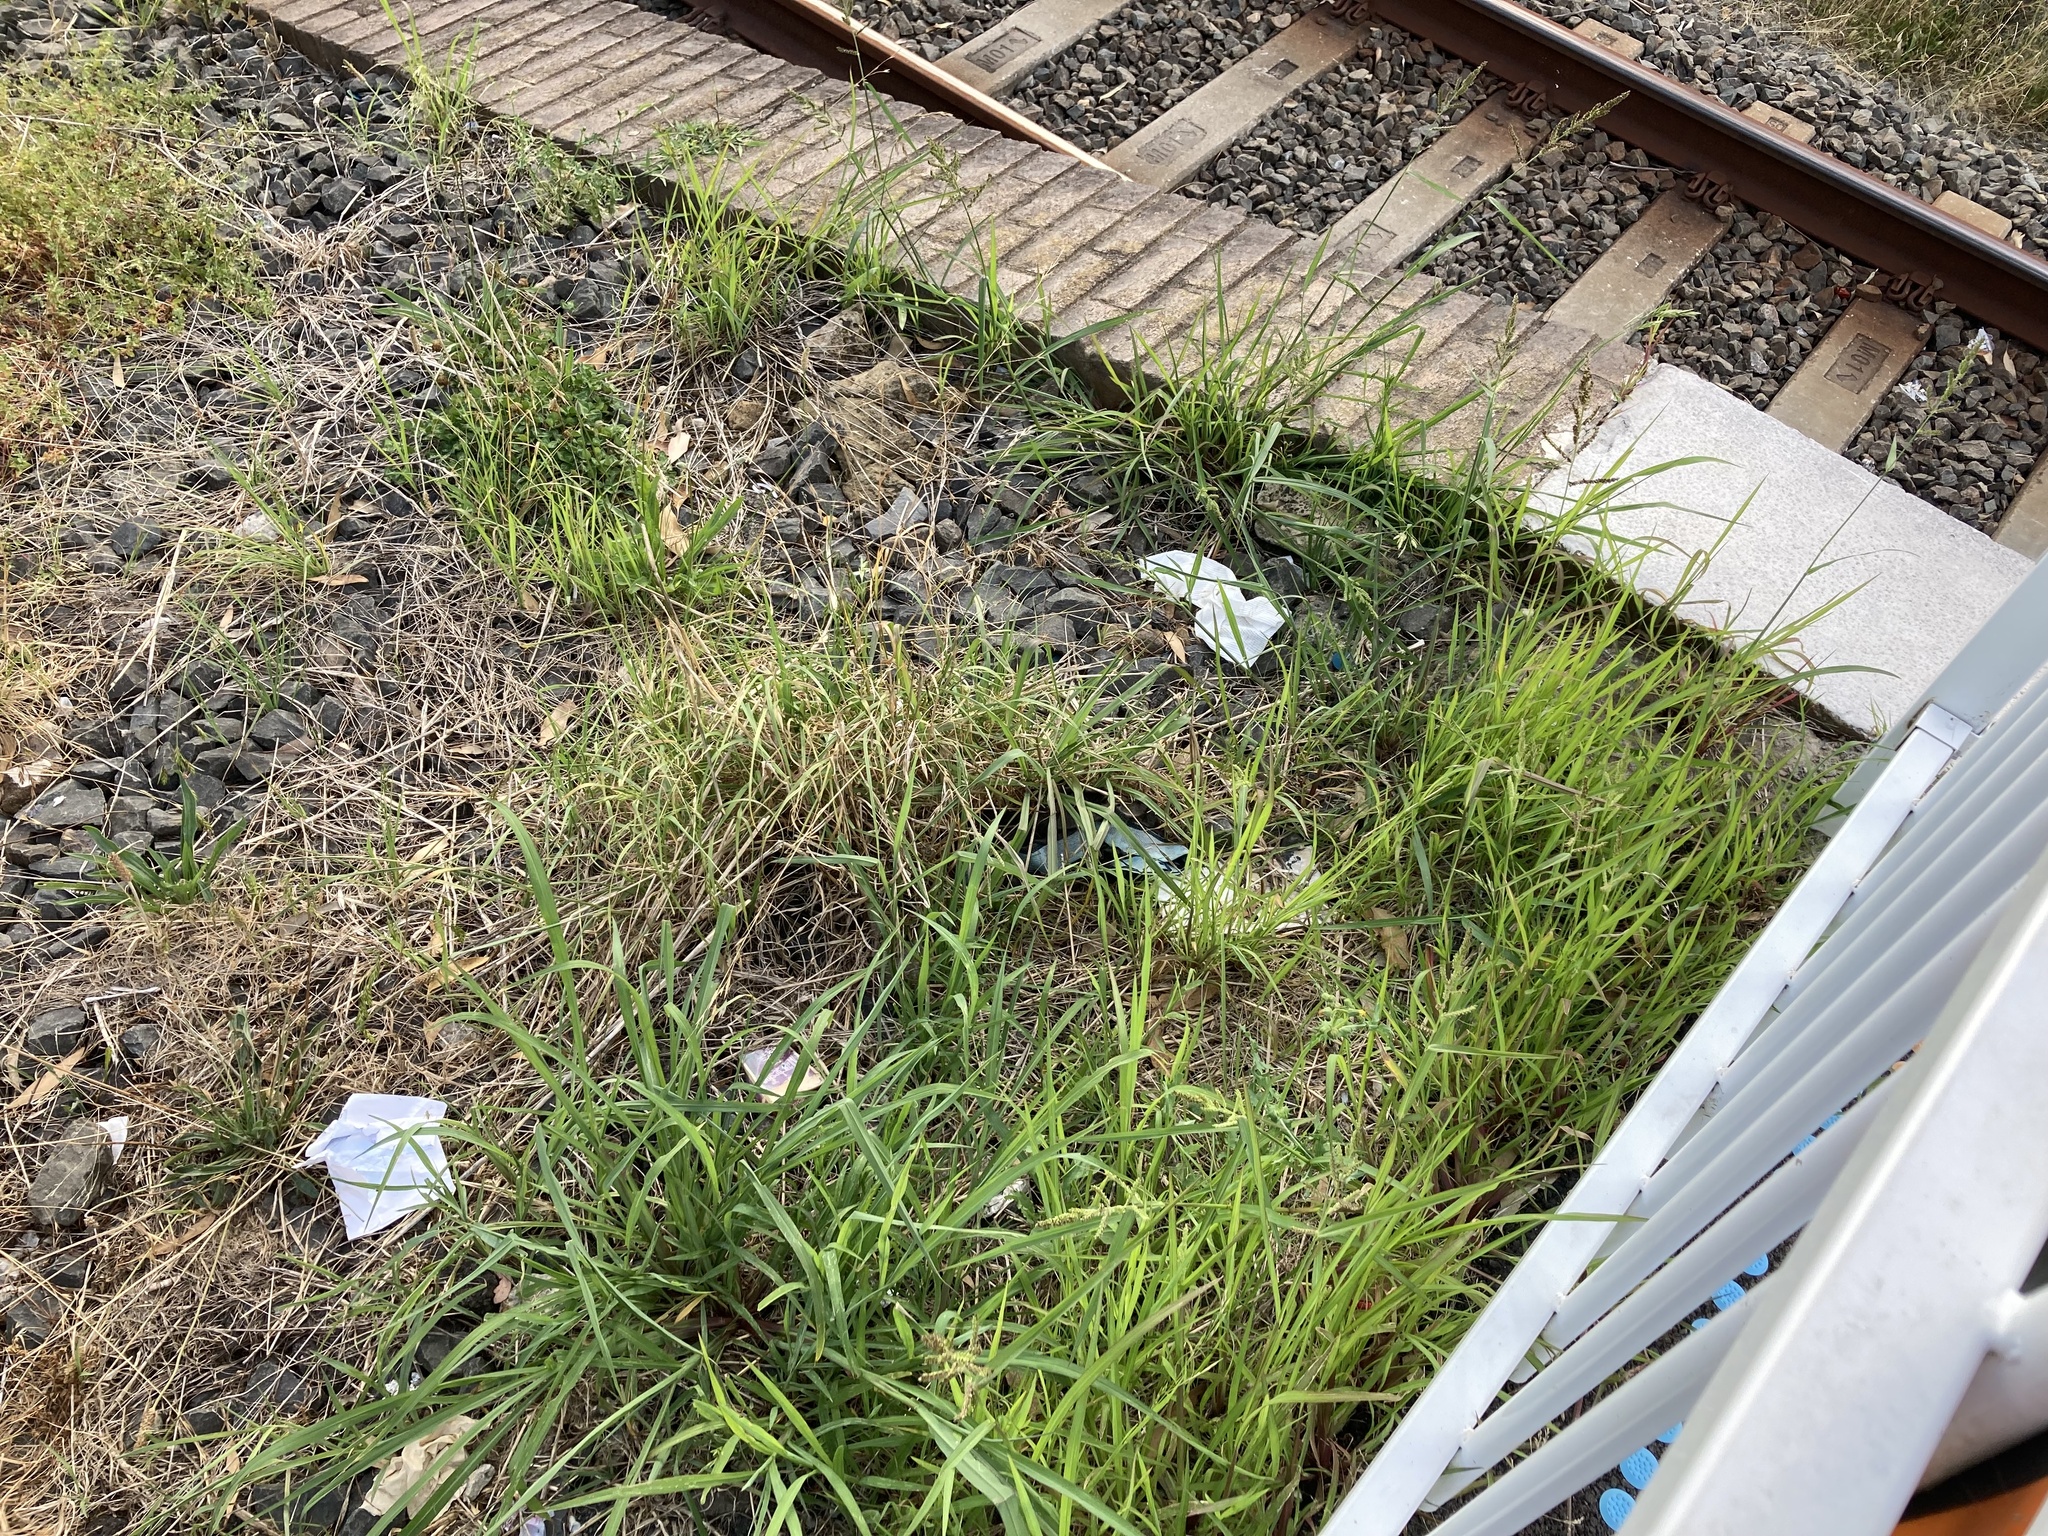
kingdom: Plantae
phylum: Tracheophyta
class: Liliopsida
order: Poales
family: Poaceae
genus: Echinochloa
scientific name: Echinochloa crus-galli
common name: Cockspur
